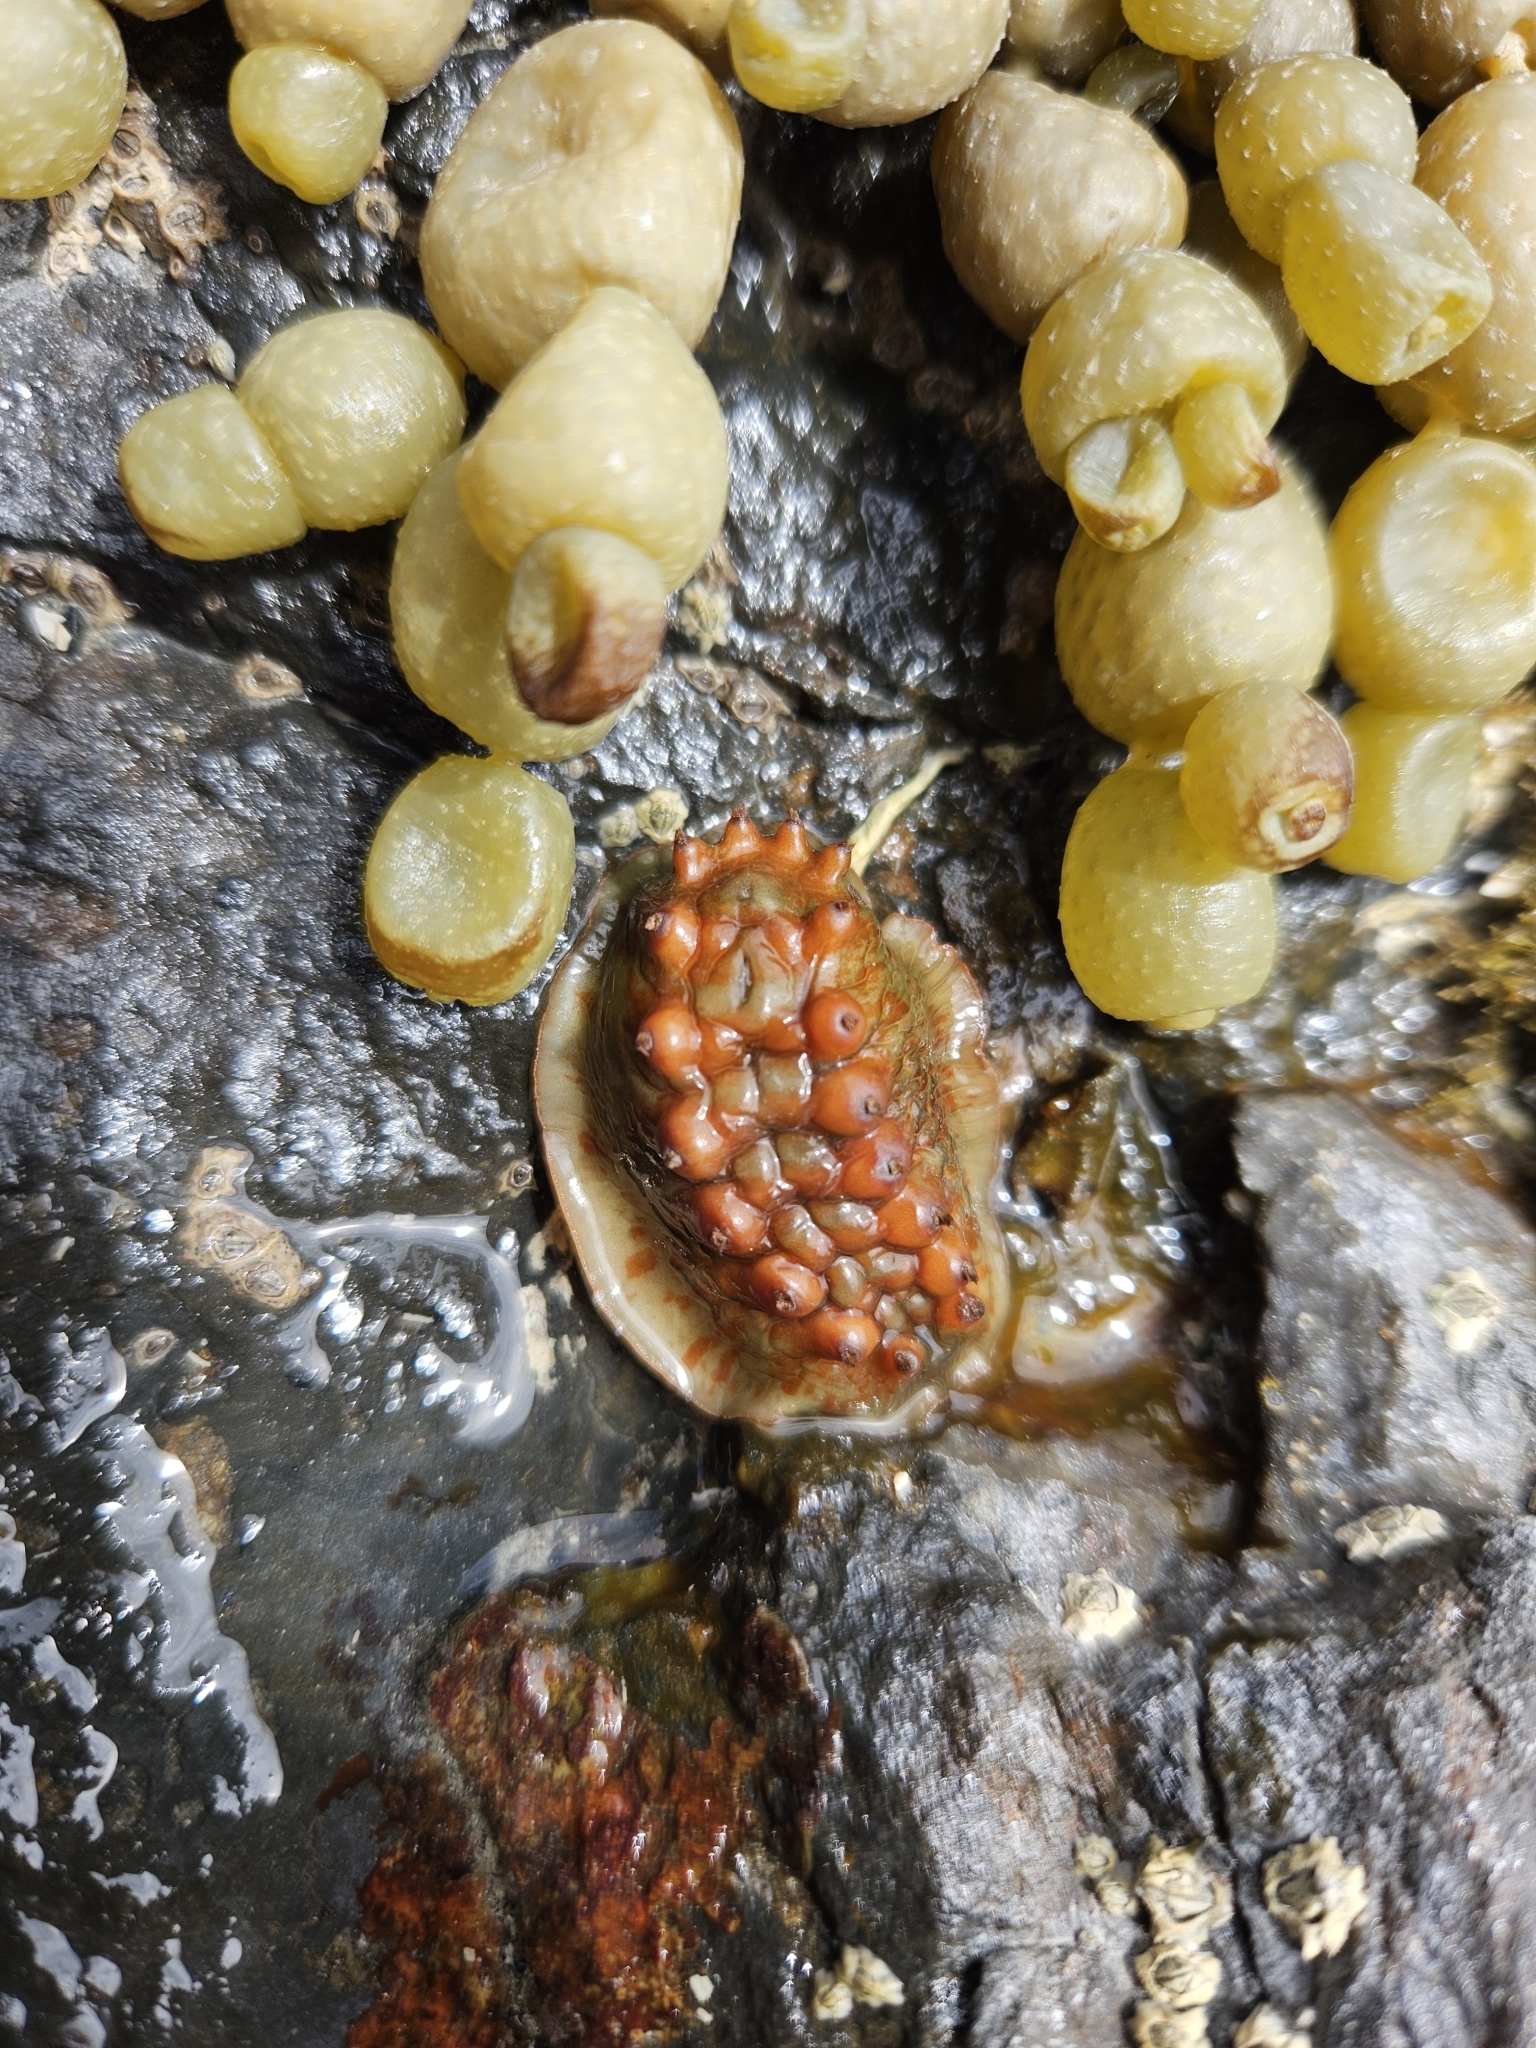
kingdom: Animalia
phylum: Mollusca
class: Polyplacophora
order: Chitonida
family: Acanthochitonidae
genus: Cryptoconchus
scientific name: Cryptoconchus porosus
